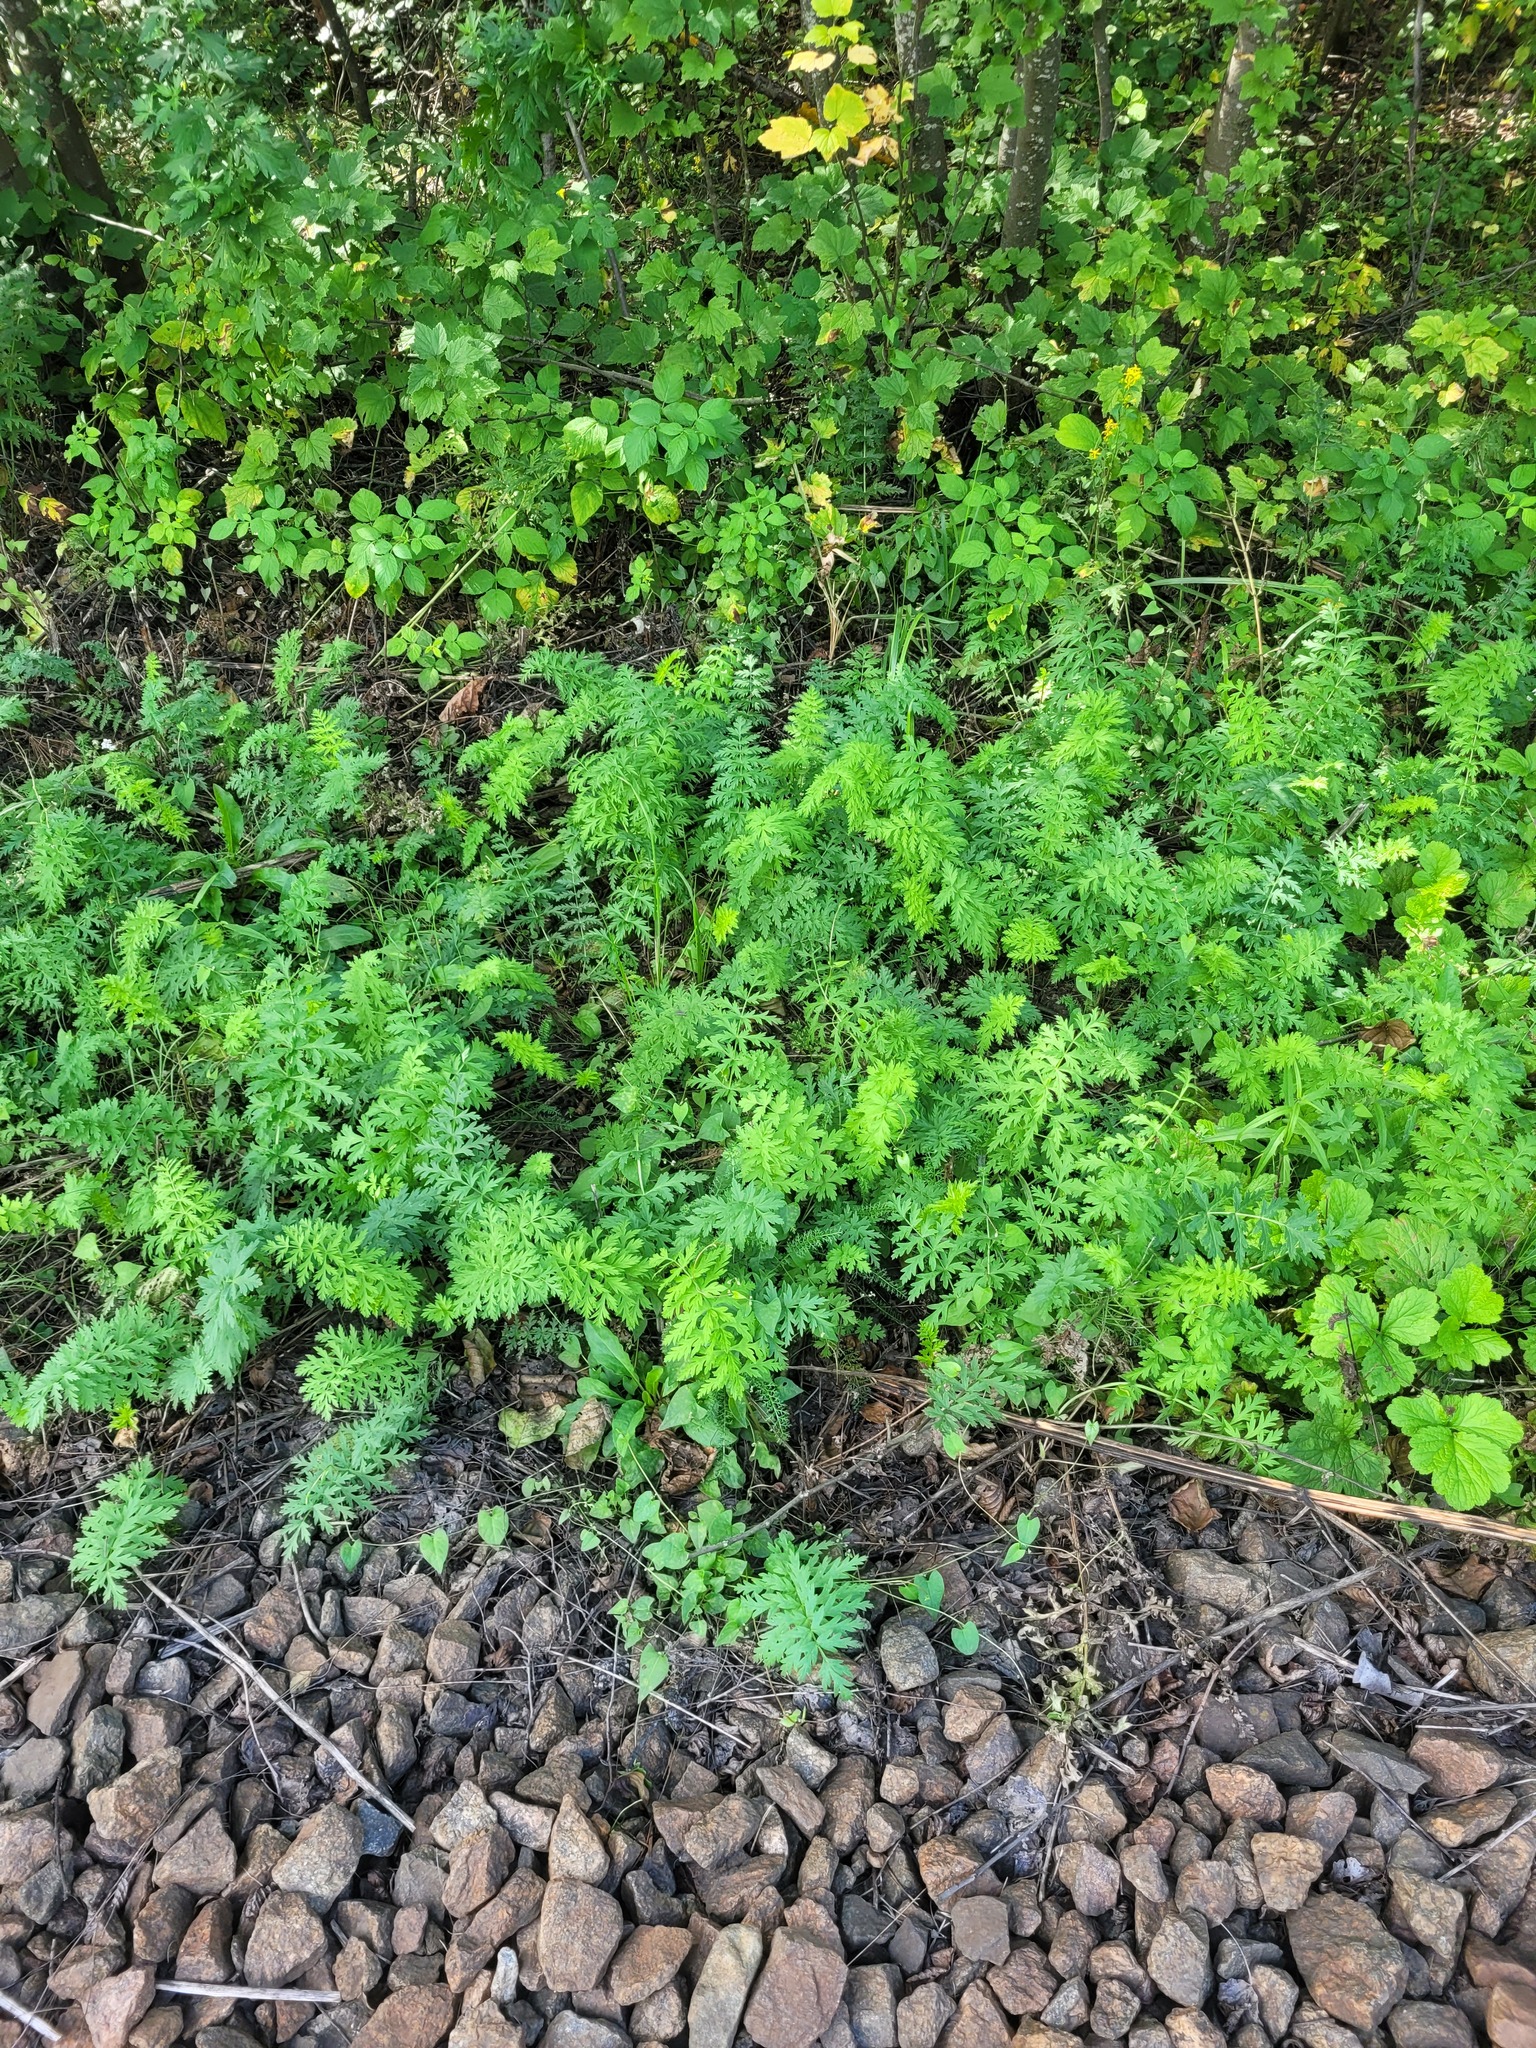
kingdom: Plantae
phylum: Tracheophyta
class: Magnoliopsida
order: Apiales
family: Apiaceae
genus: Seseli
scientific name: Seseli libanotis
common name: Mooncarrot
